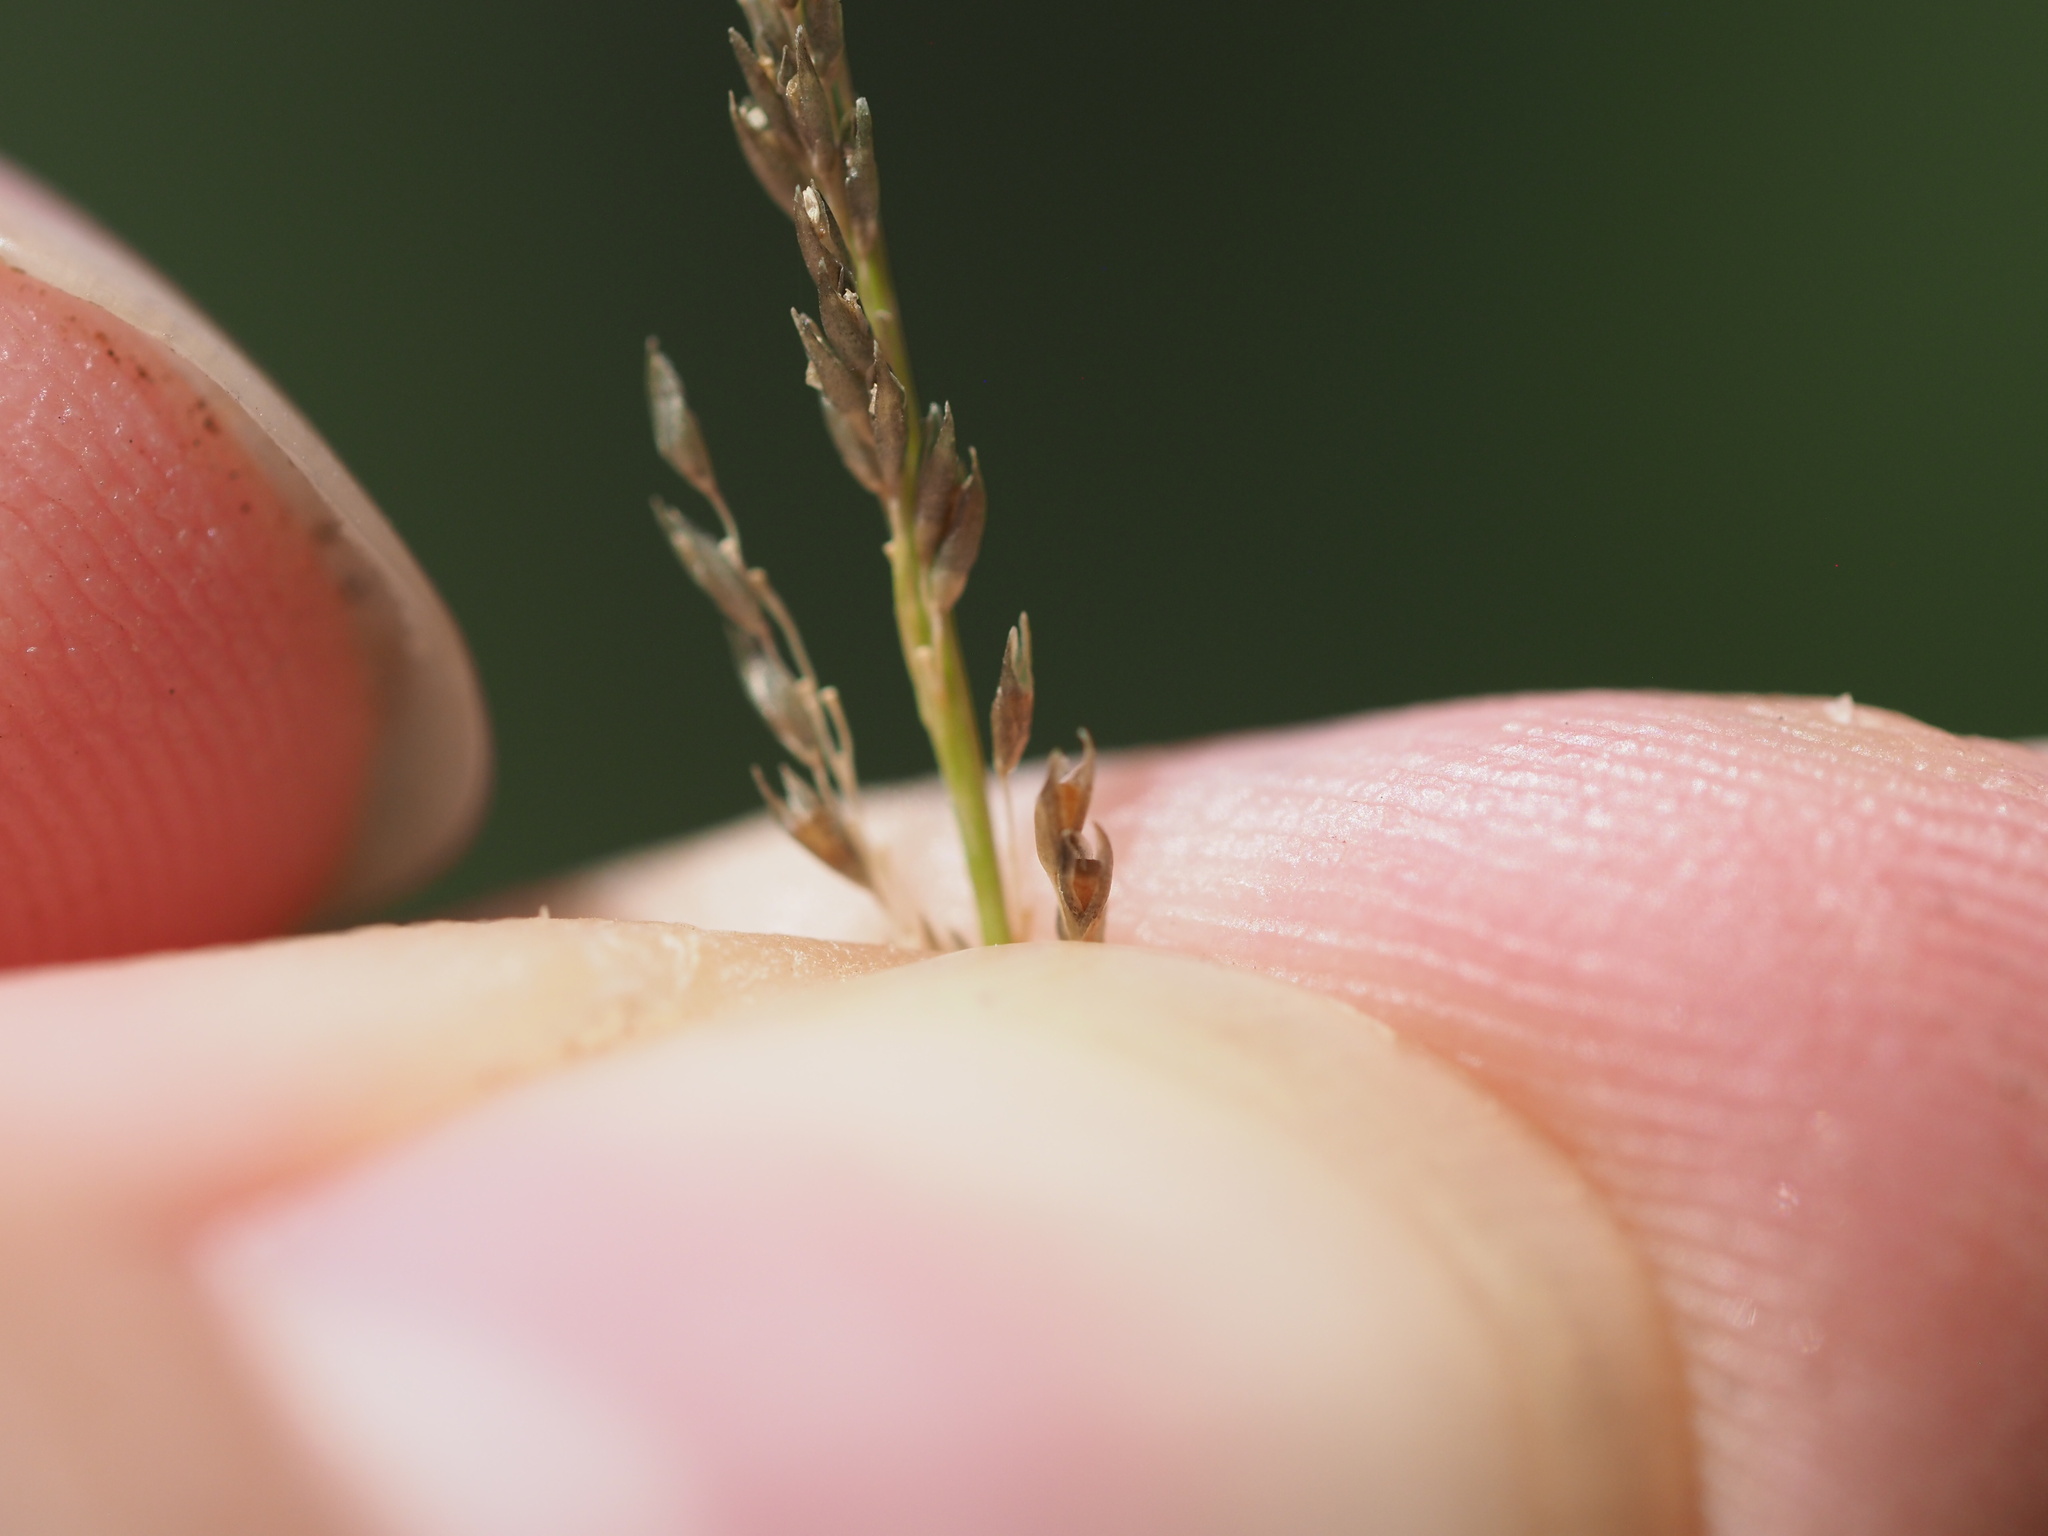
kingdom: Plantae
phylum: Tracheophyta
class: Liliopsida
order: Poales
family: Poaceae
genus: Sporobolus
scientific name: Sporobolus elongatus
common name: Rat tail grass
